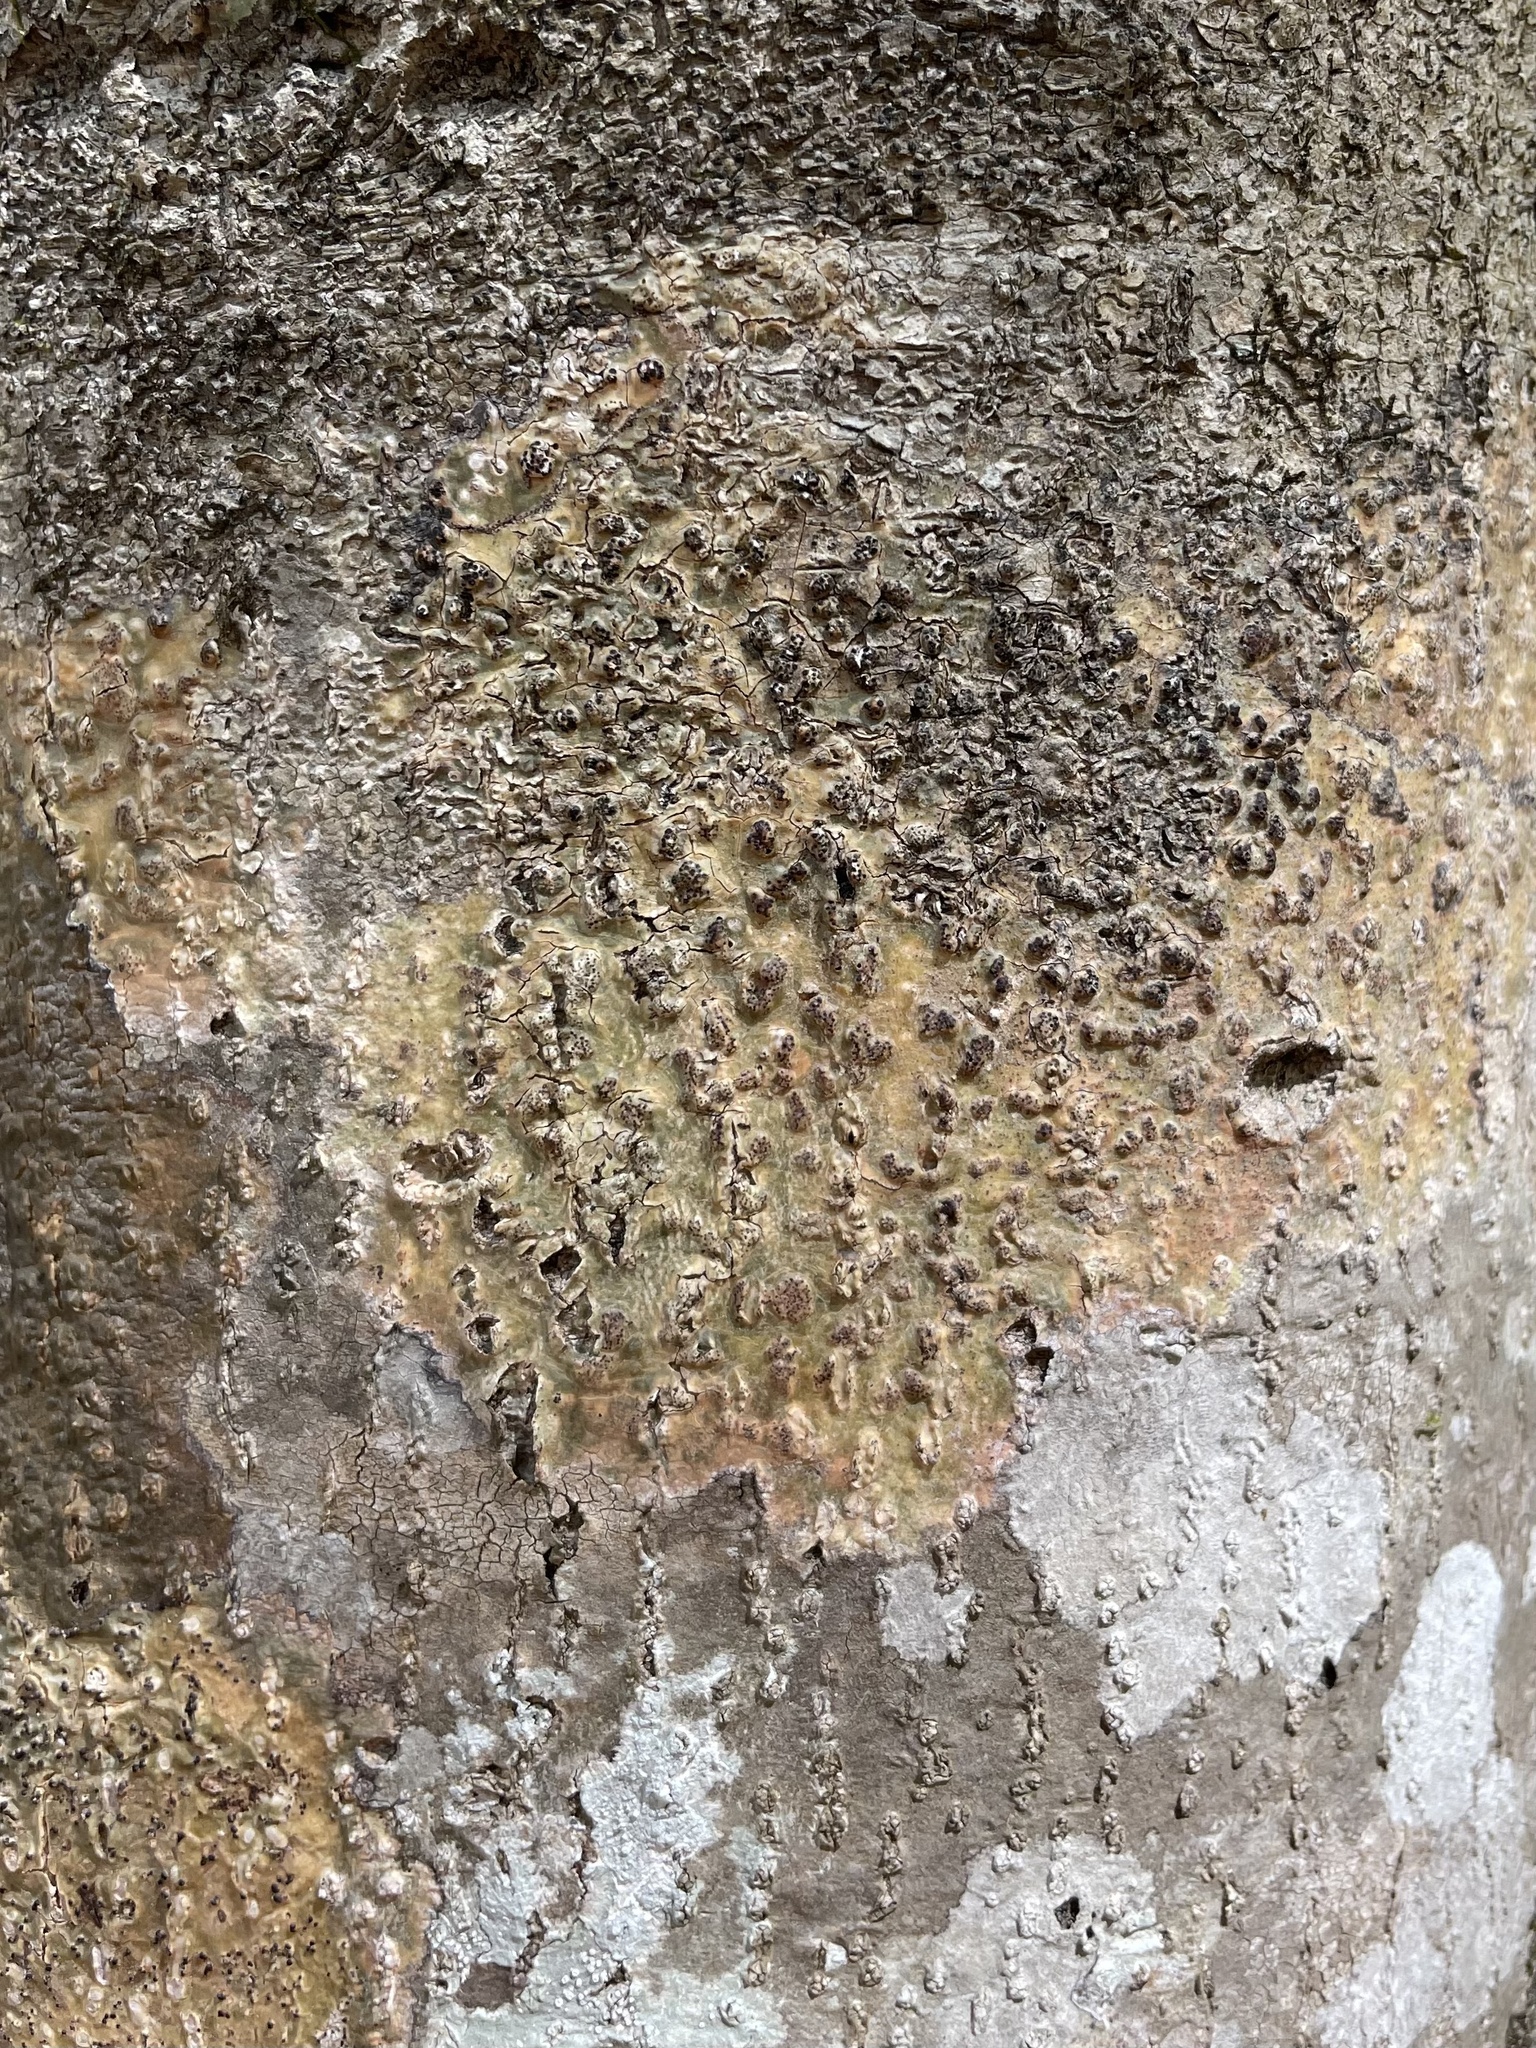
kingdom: Fungi
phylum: Ascomycota
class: Dothideomycetes
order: Trypetheliales
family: Trypetheliaceae
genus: Viridothelium
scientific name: Viridothelium virens
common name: Speckled blister lichen
